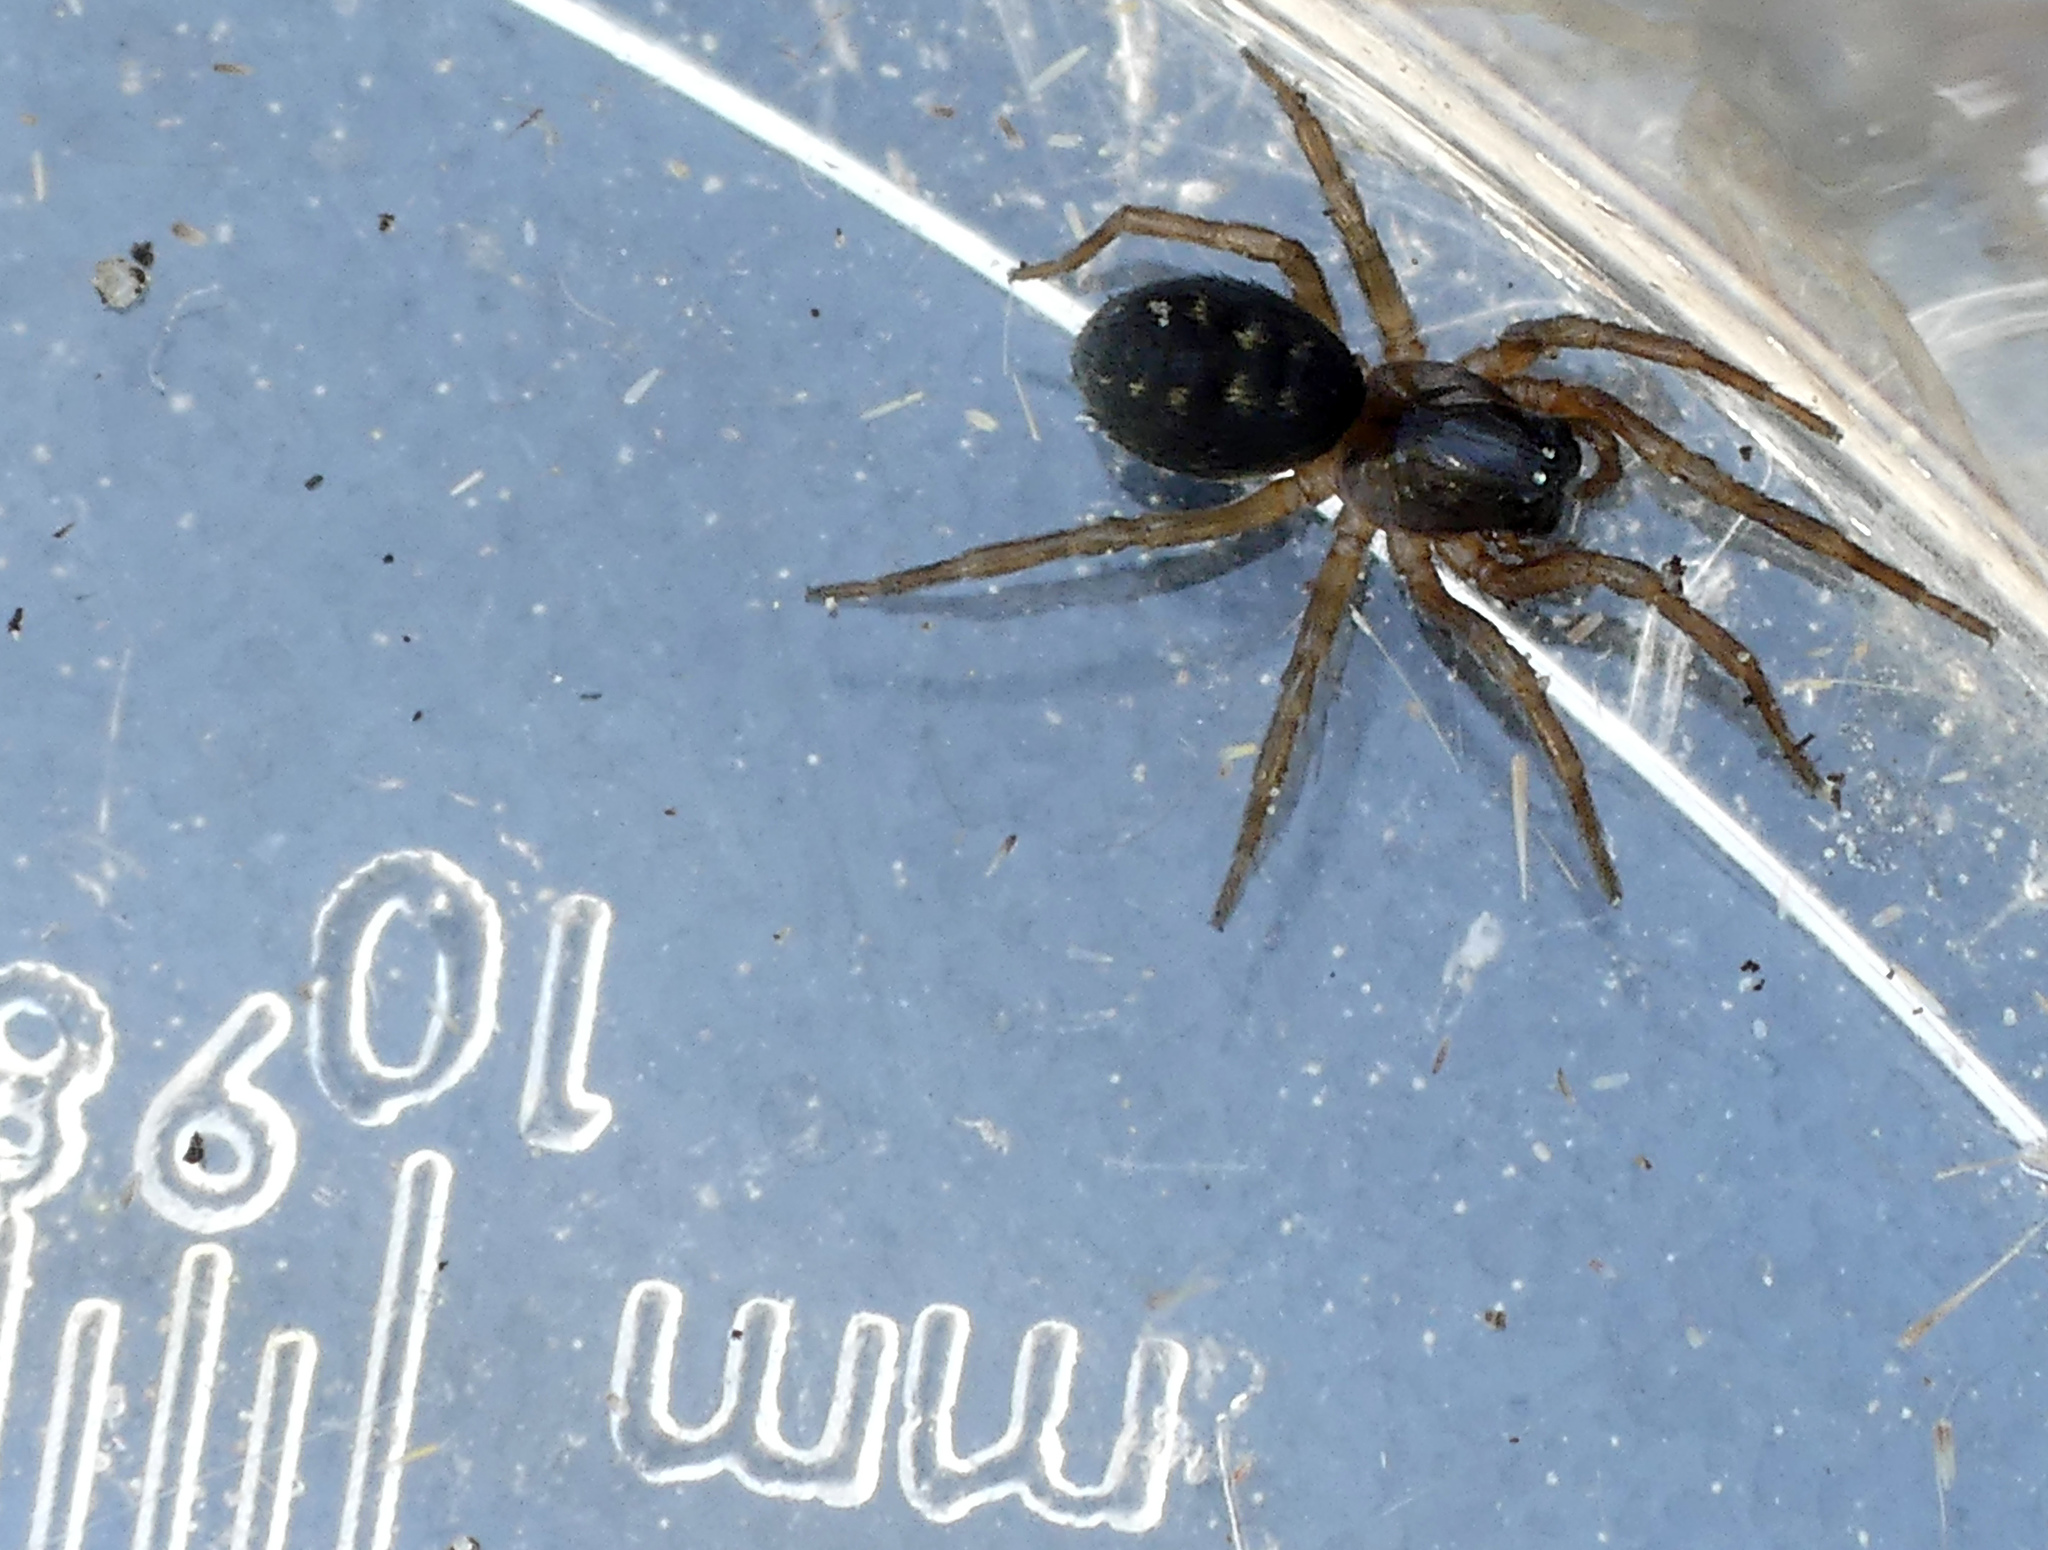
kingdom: Animalia
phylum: Arthropoda
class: Arachnida
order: Araneae
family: Dictynidae
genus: Argenna
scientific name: Argenna patula
